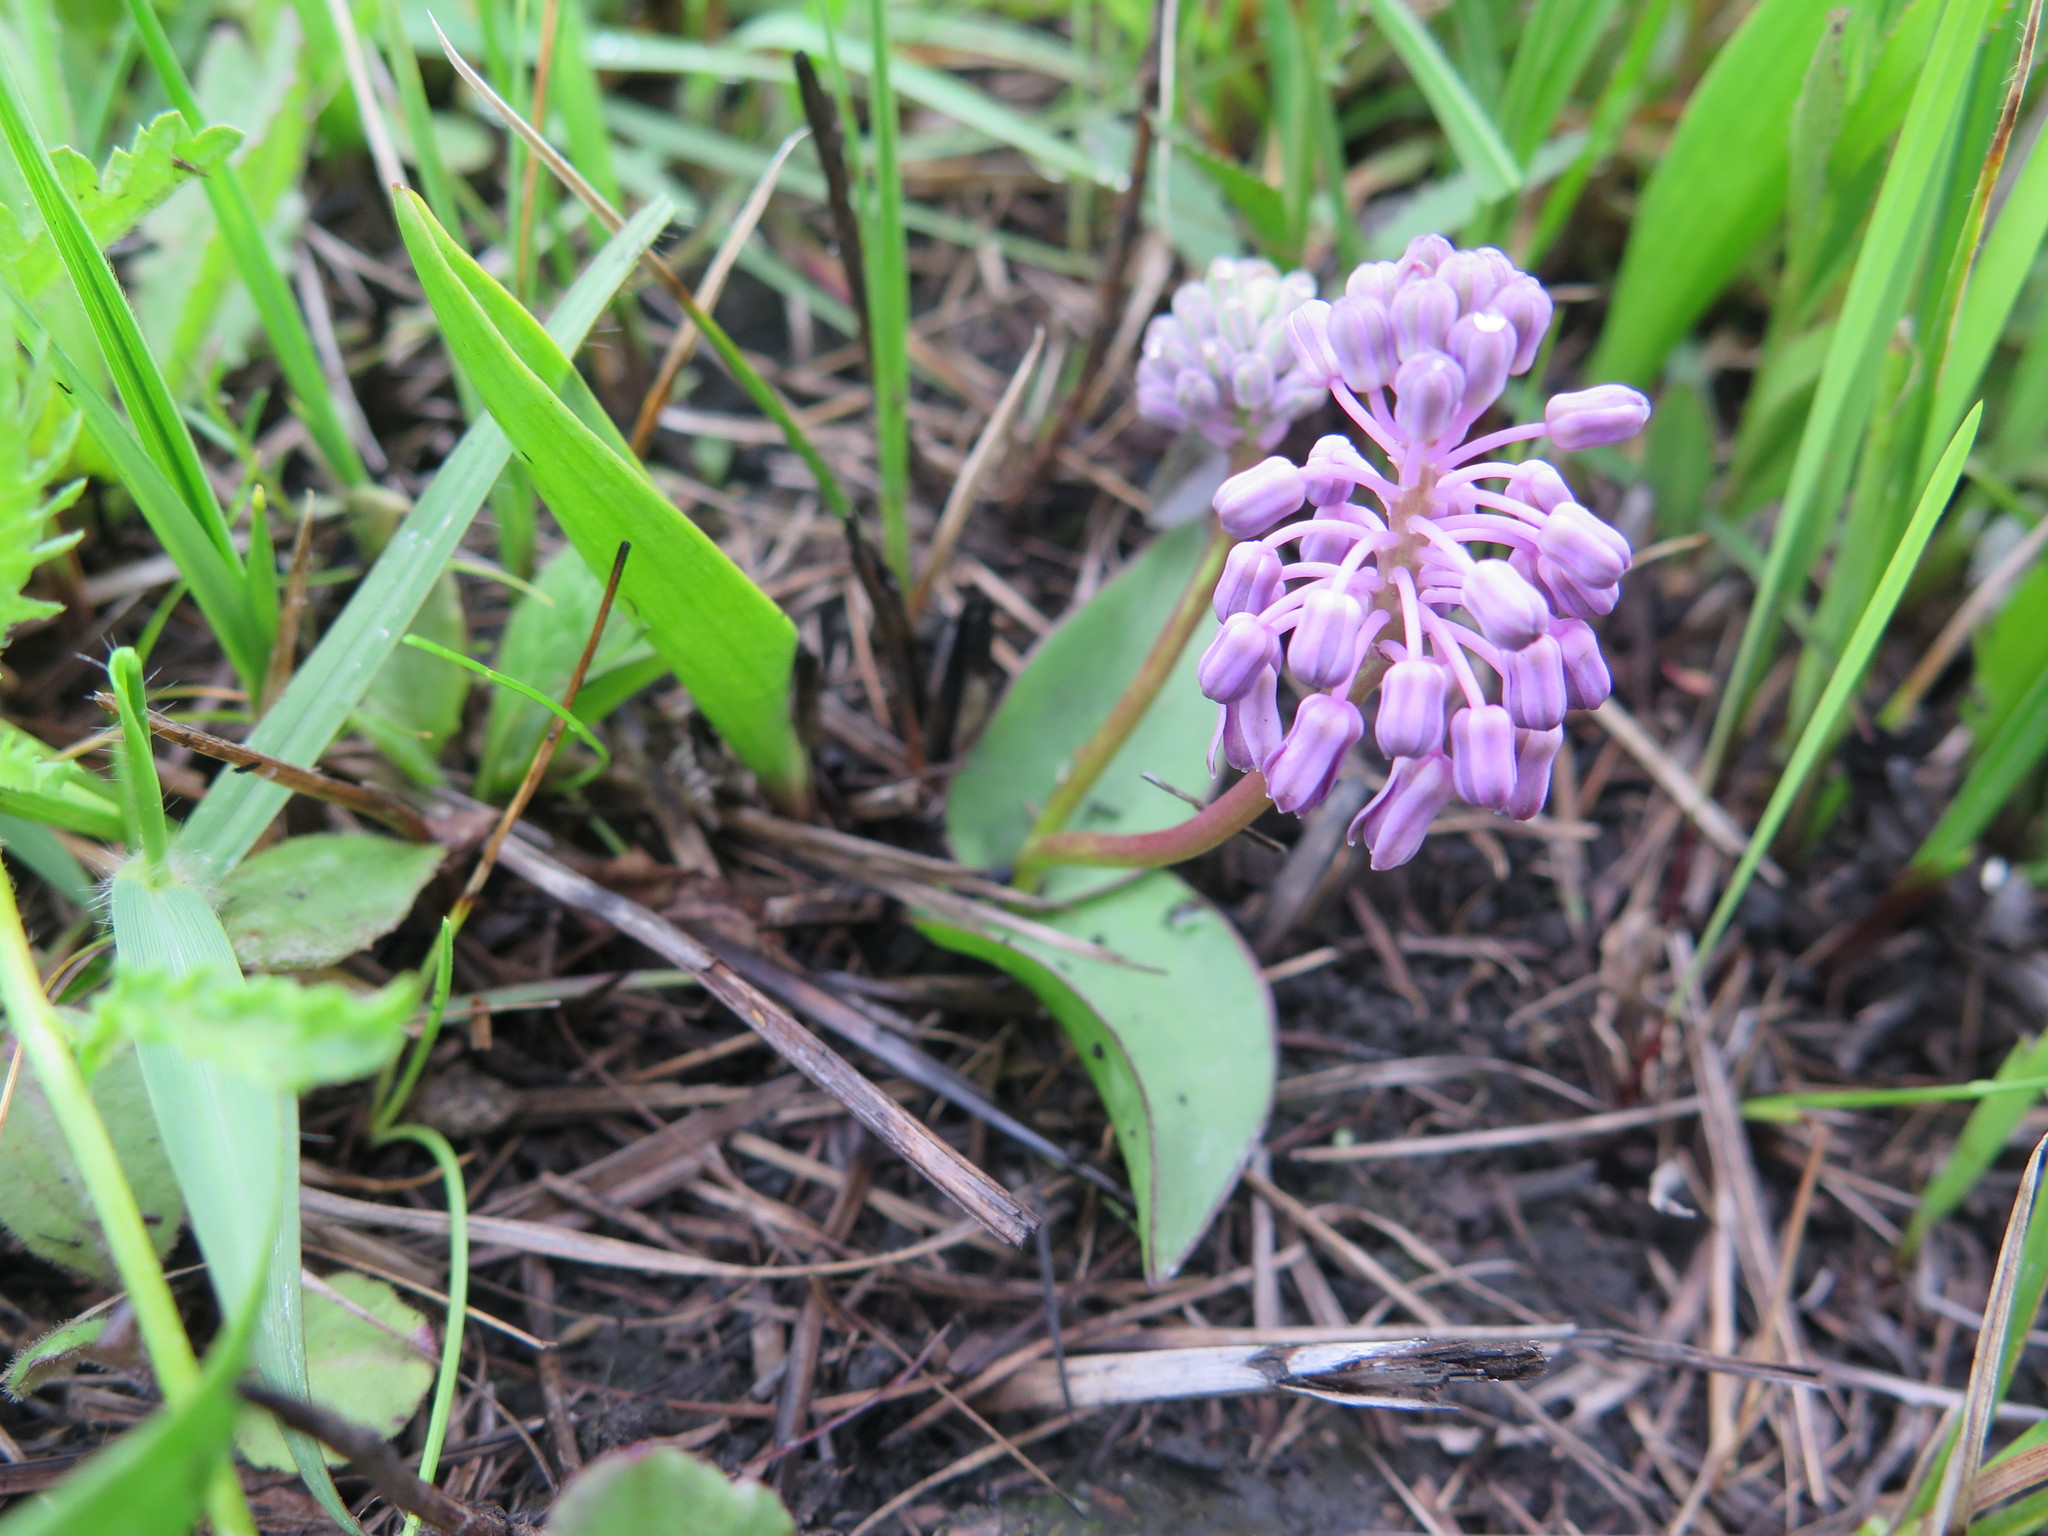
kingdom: Plantae
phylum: Tracheophyta
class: Liliopsida
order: Asparagales
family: Asparagaceae
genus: Ledebouria
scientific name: Ledebouria sandersonii
